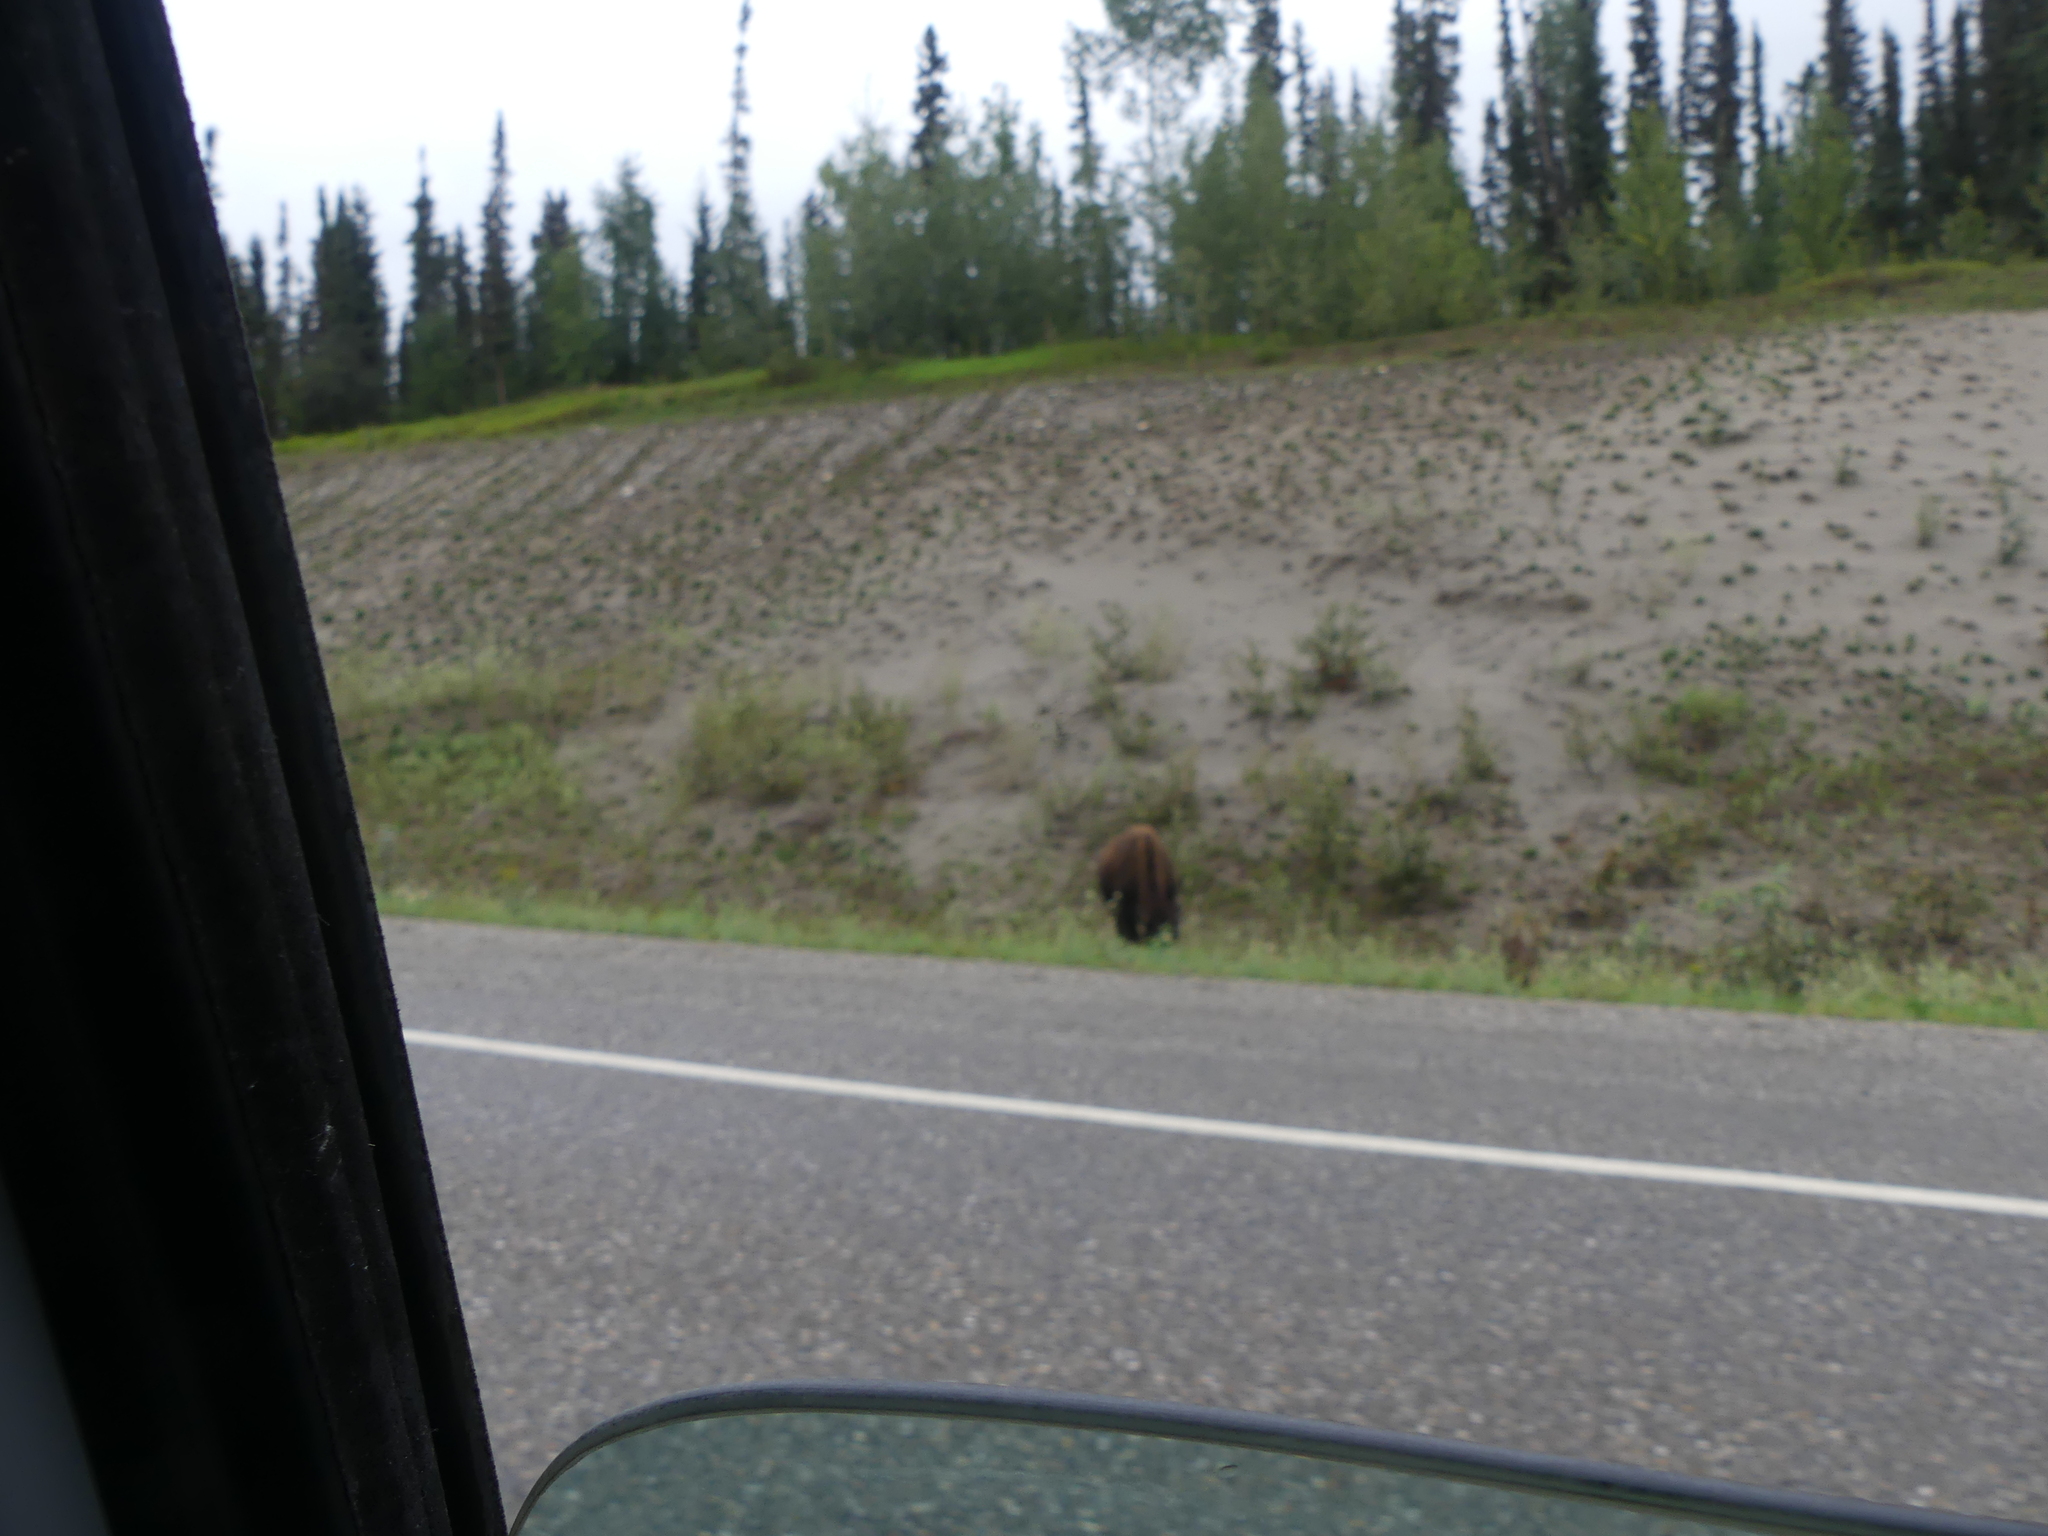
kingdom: Animalia
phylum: Chordata
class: Mammalia
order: Artiodactyla
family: Bovidae
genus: Bison
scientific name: Bison bison
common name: American bison
